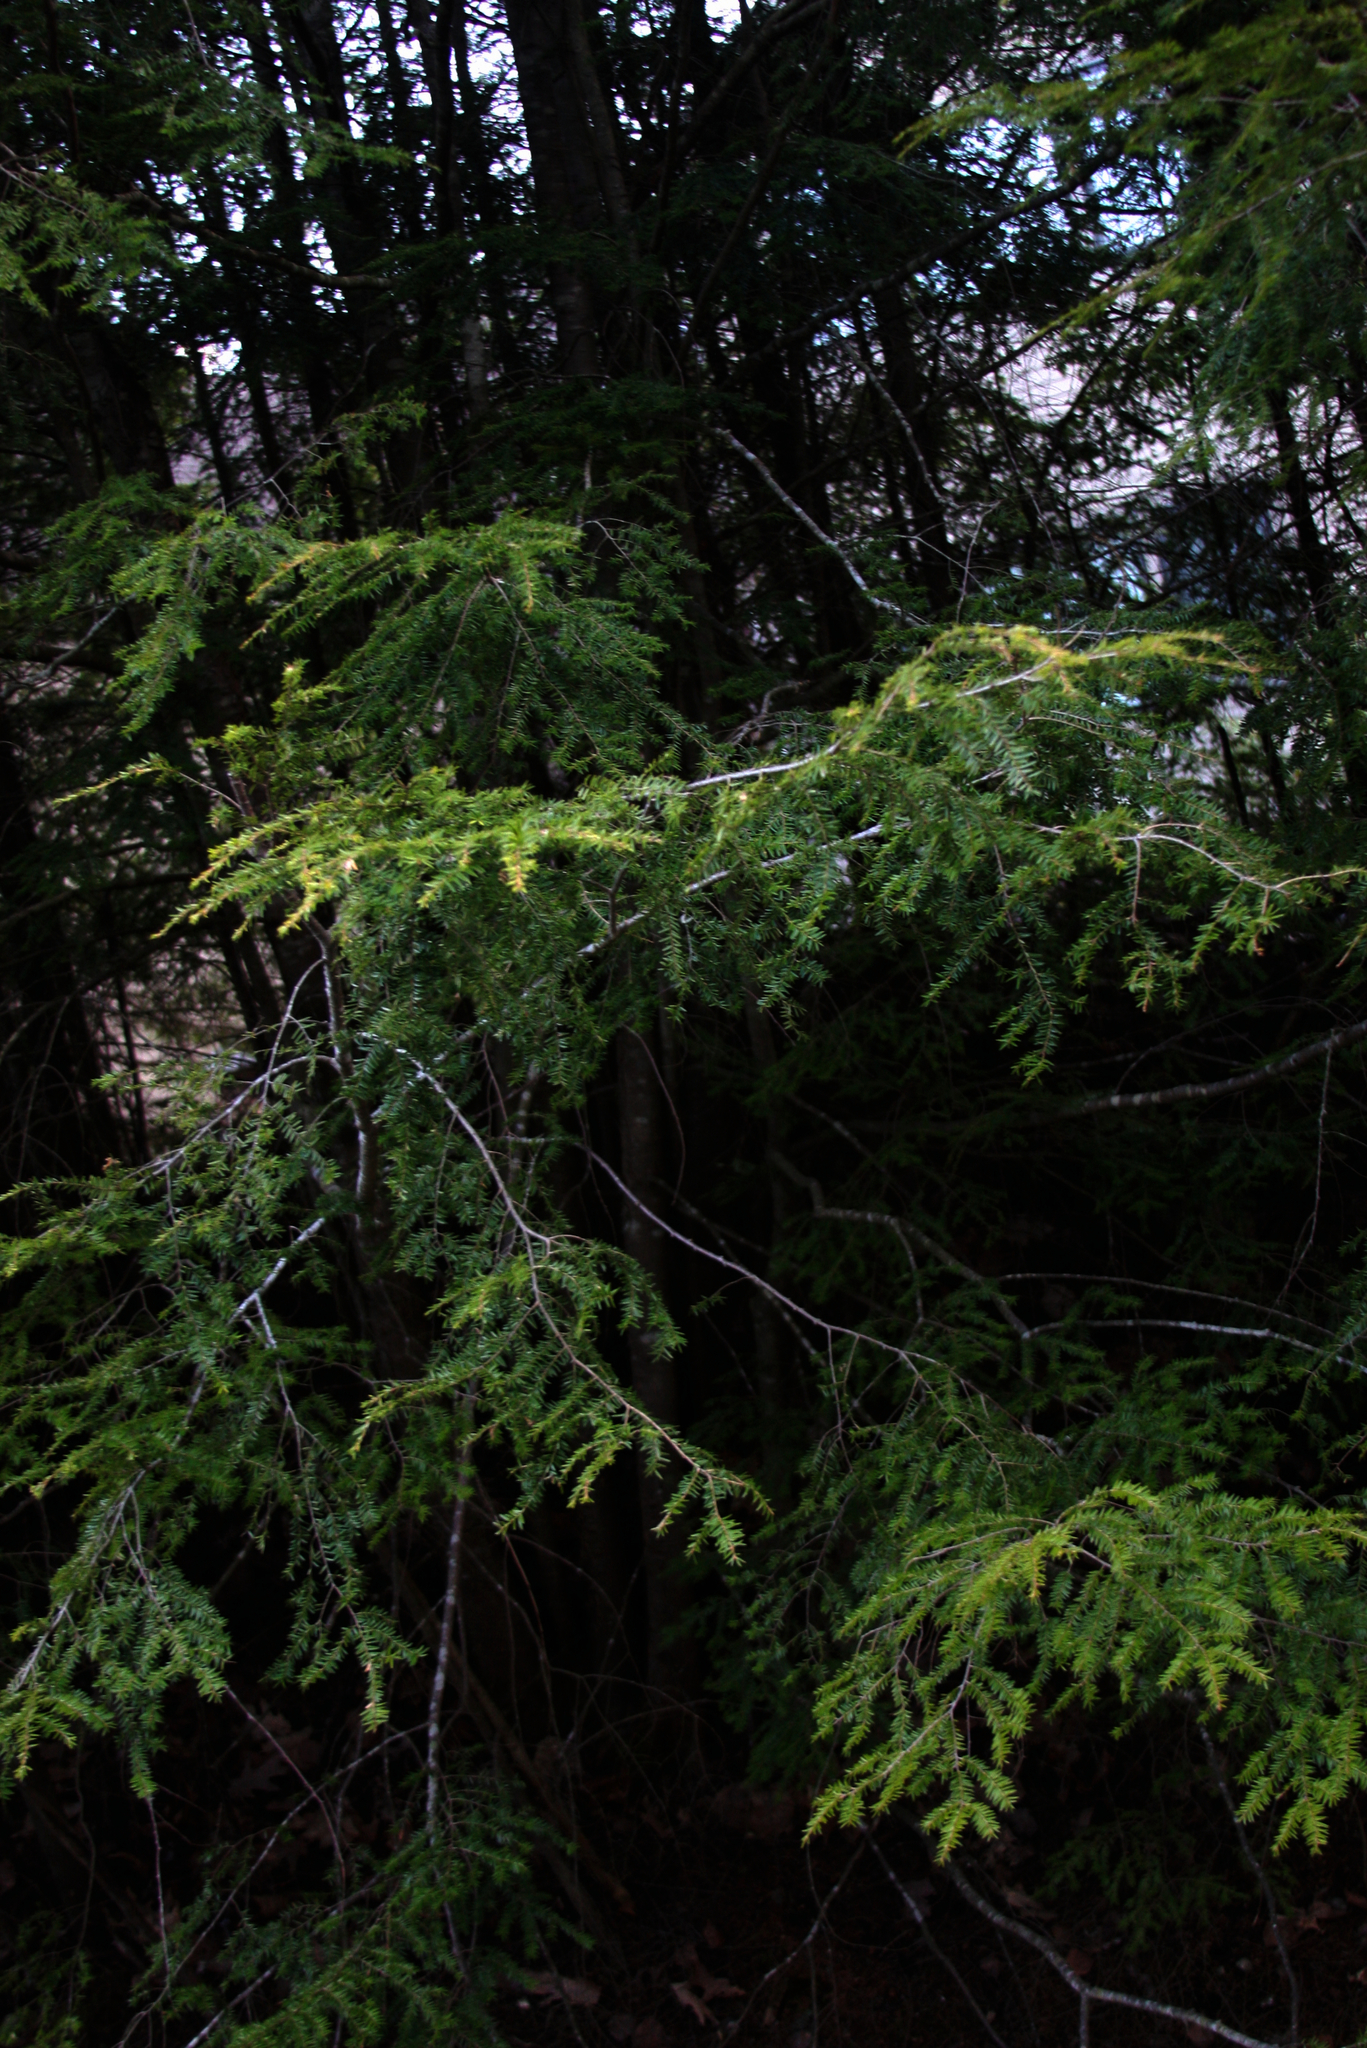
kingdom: Plantae
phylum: Tracheophyta
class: Pinopsida
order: Pinales
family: Pinaceae
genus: Tsuga
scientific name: Tsuga canadensis
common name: Eastern hemlock
